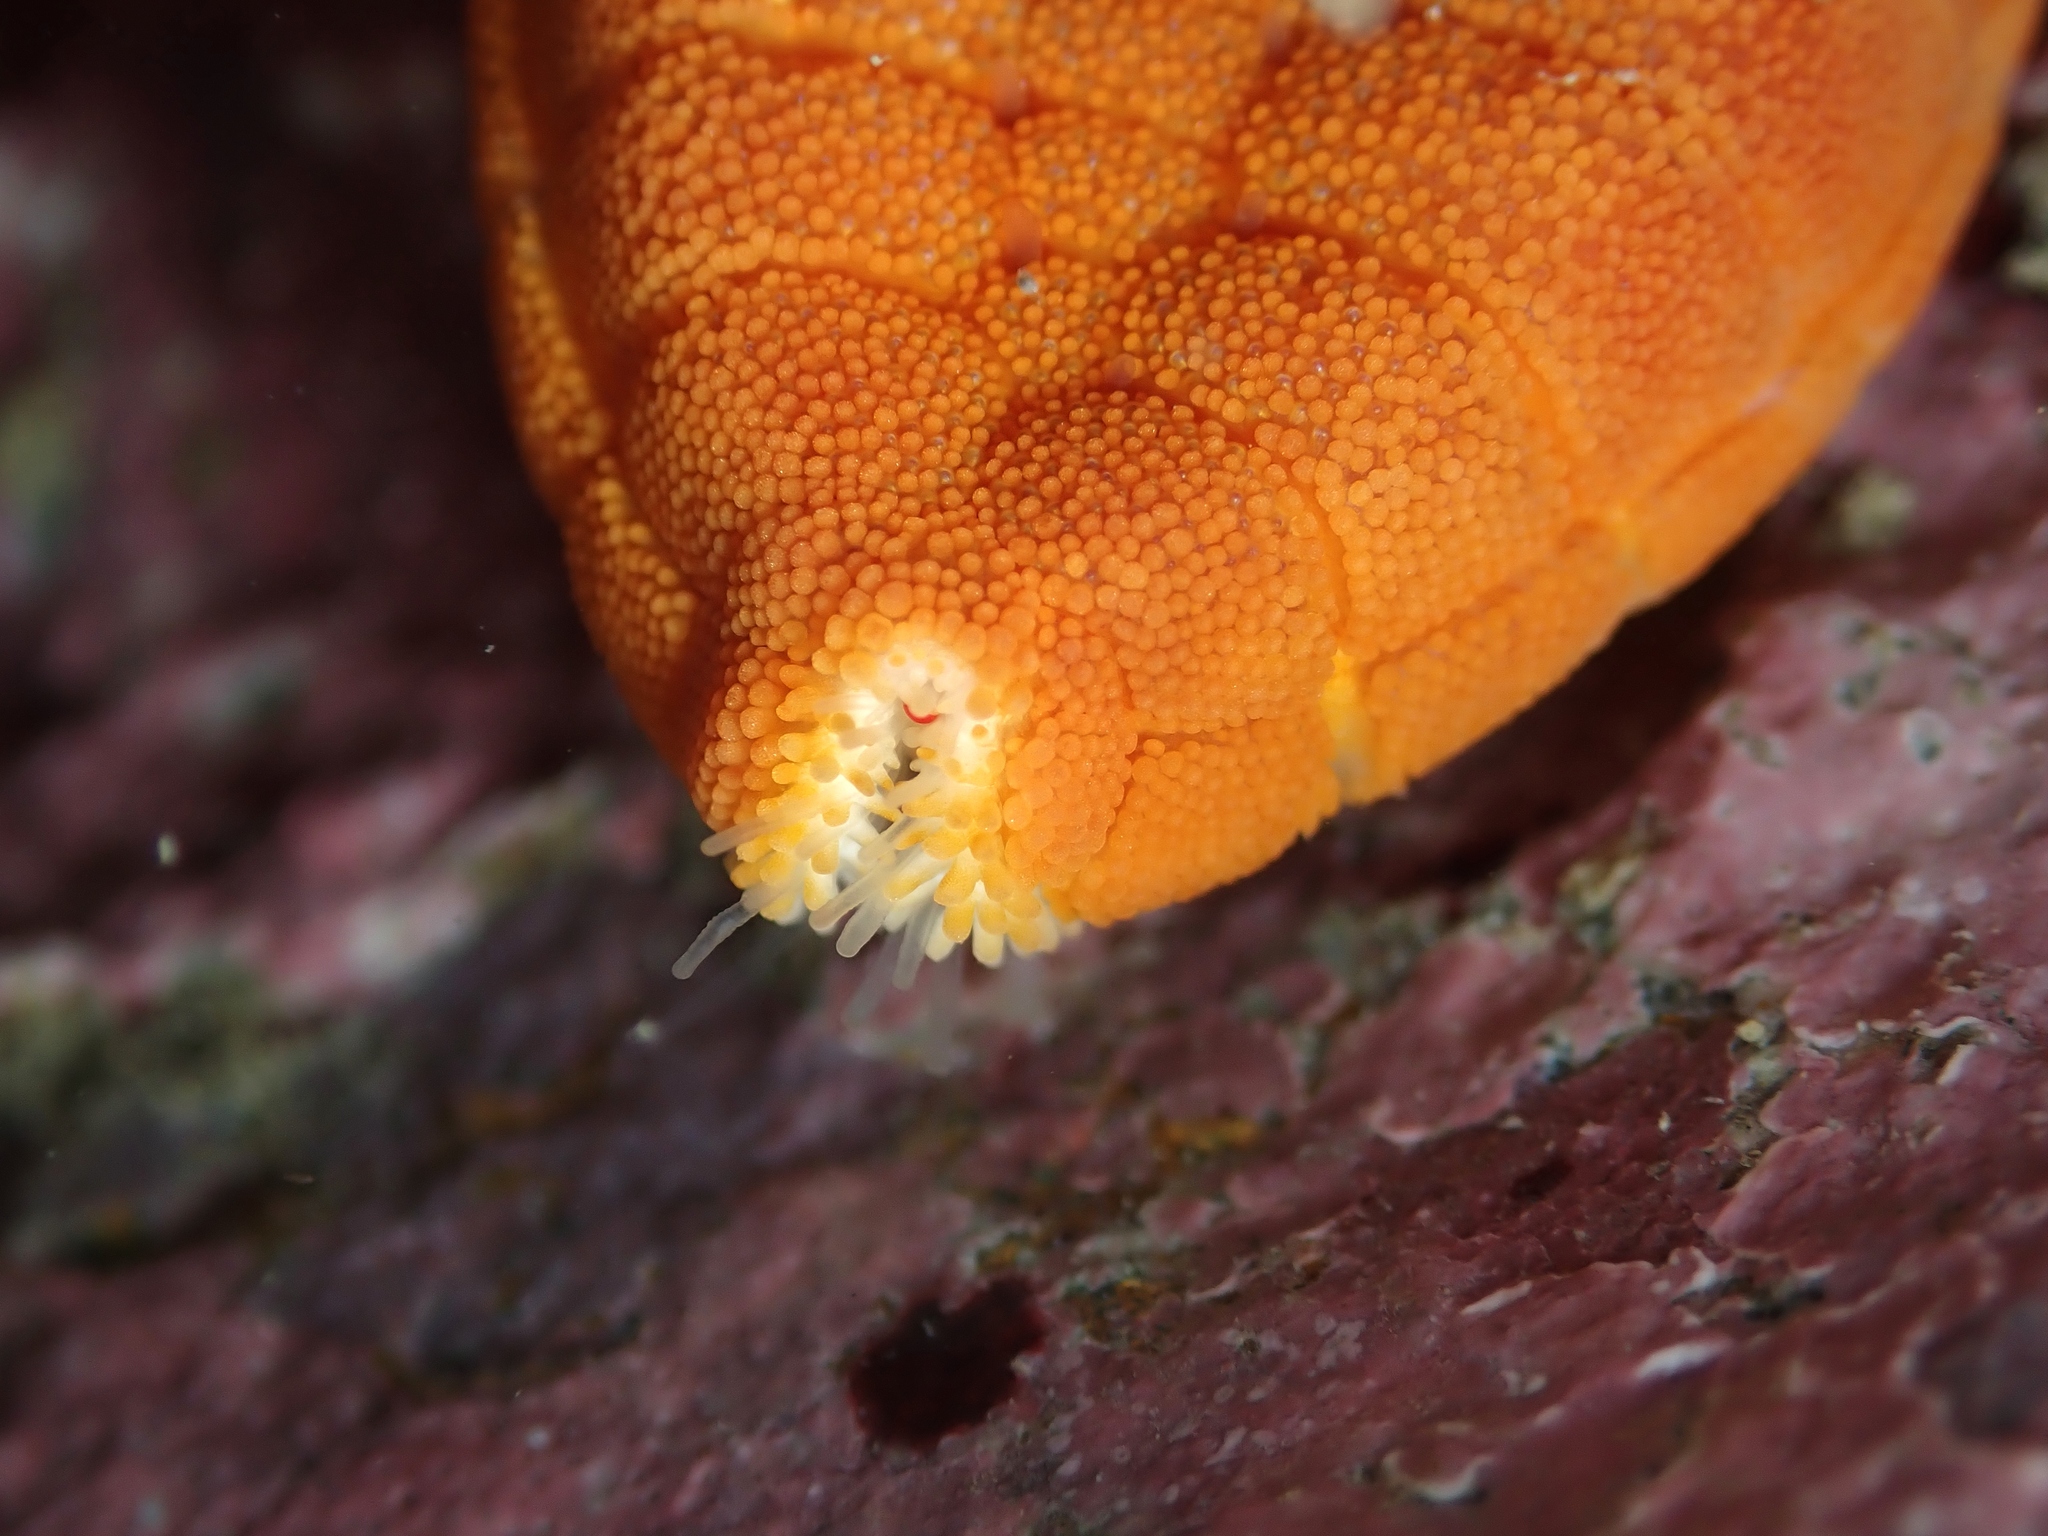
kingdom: Animalia
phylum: Echinodermata
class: Asteroidea
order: Valvatida
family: Odontasteridae
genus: Diplodontias
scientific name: Diplodontias dilatatus
